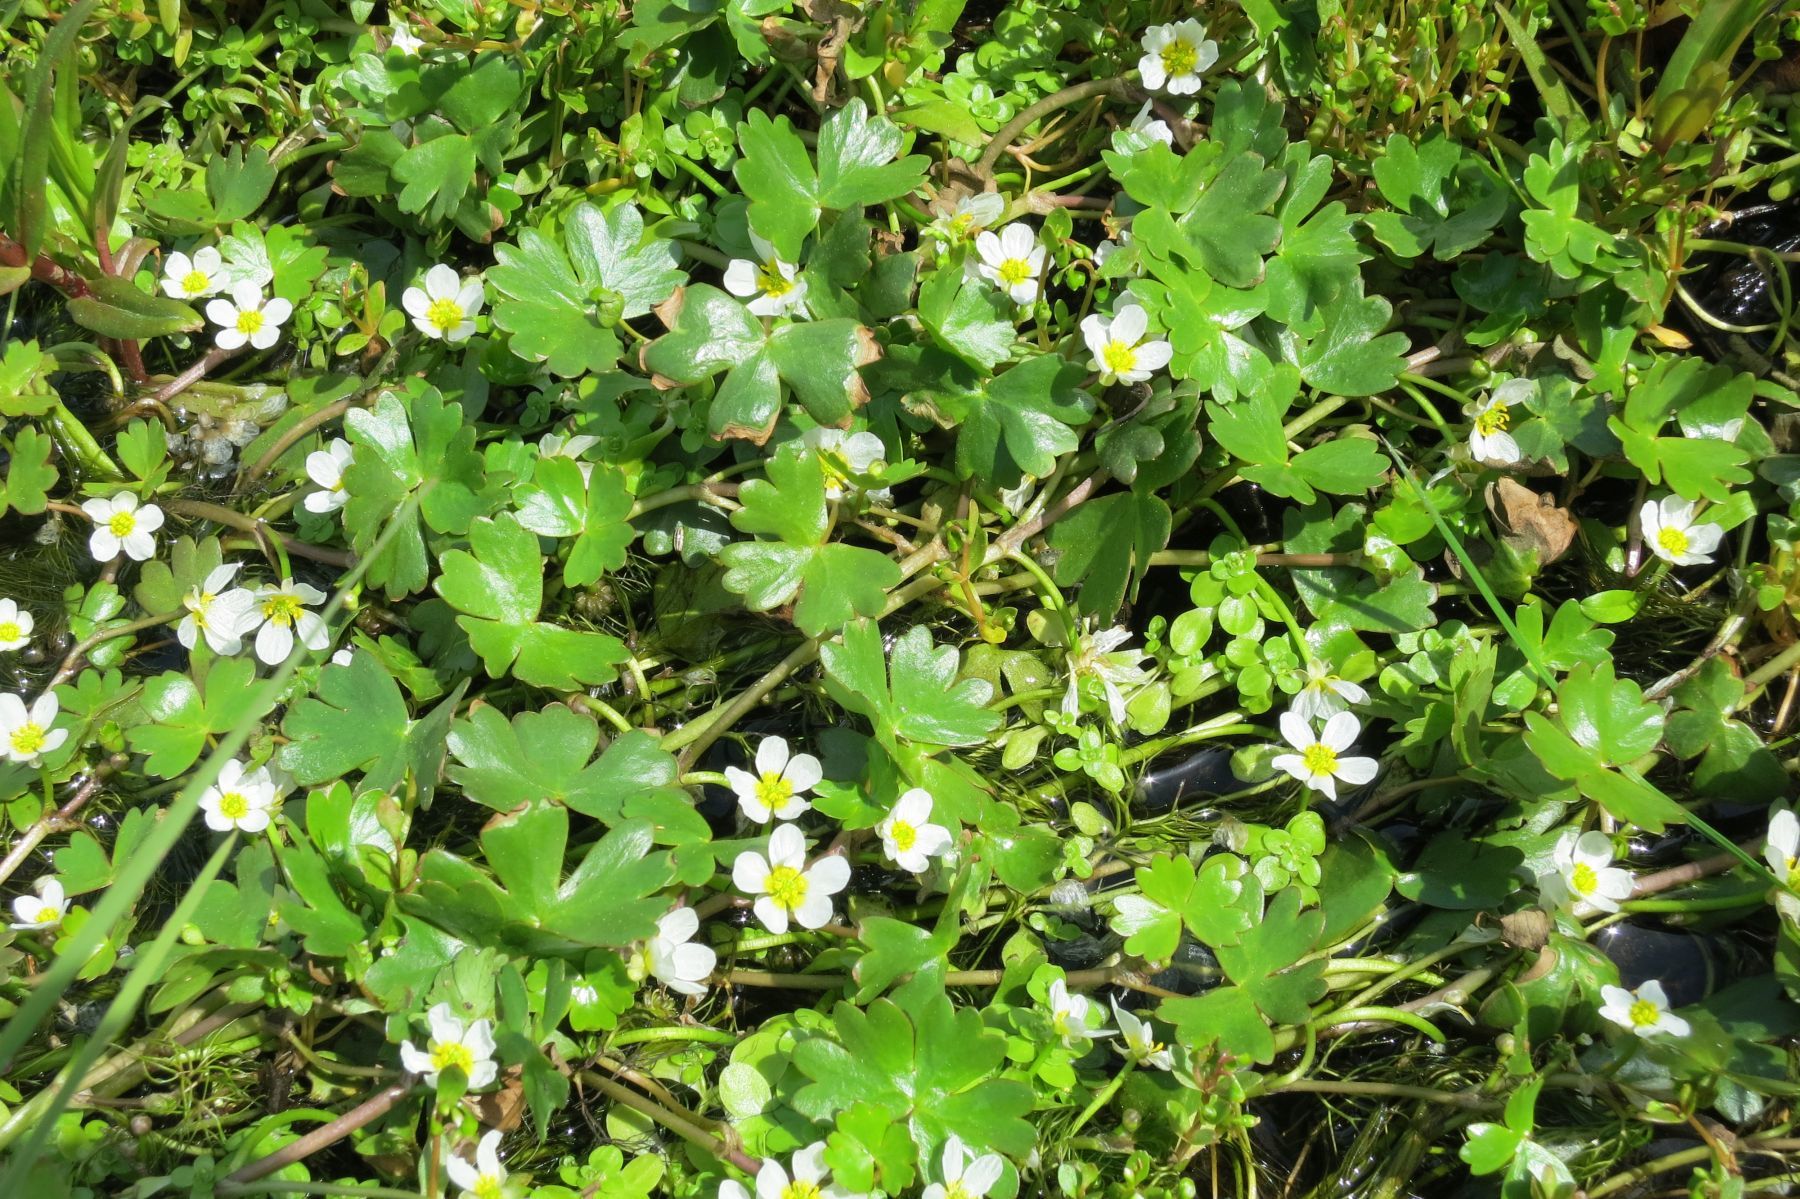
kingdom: Plantae
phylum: Tracheophyta
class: Magnoliopsida
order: Ranunculales
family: Ranunculaceae
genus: Ranunculus
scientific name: Ranunculus aquatilis
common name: Common water-crowfoot
